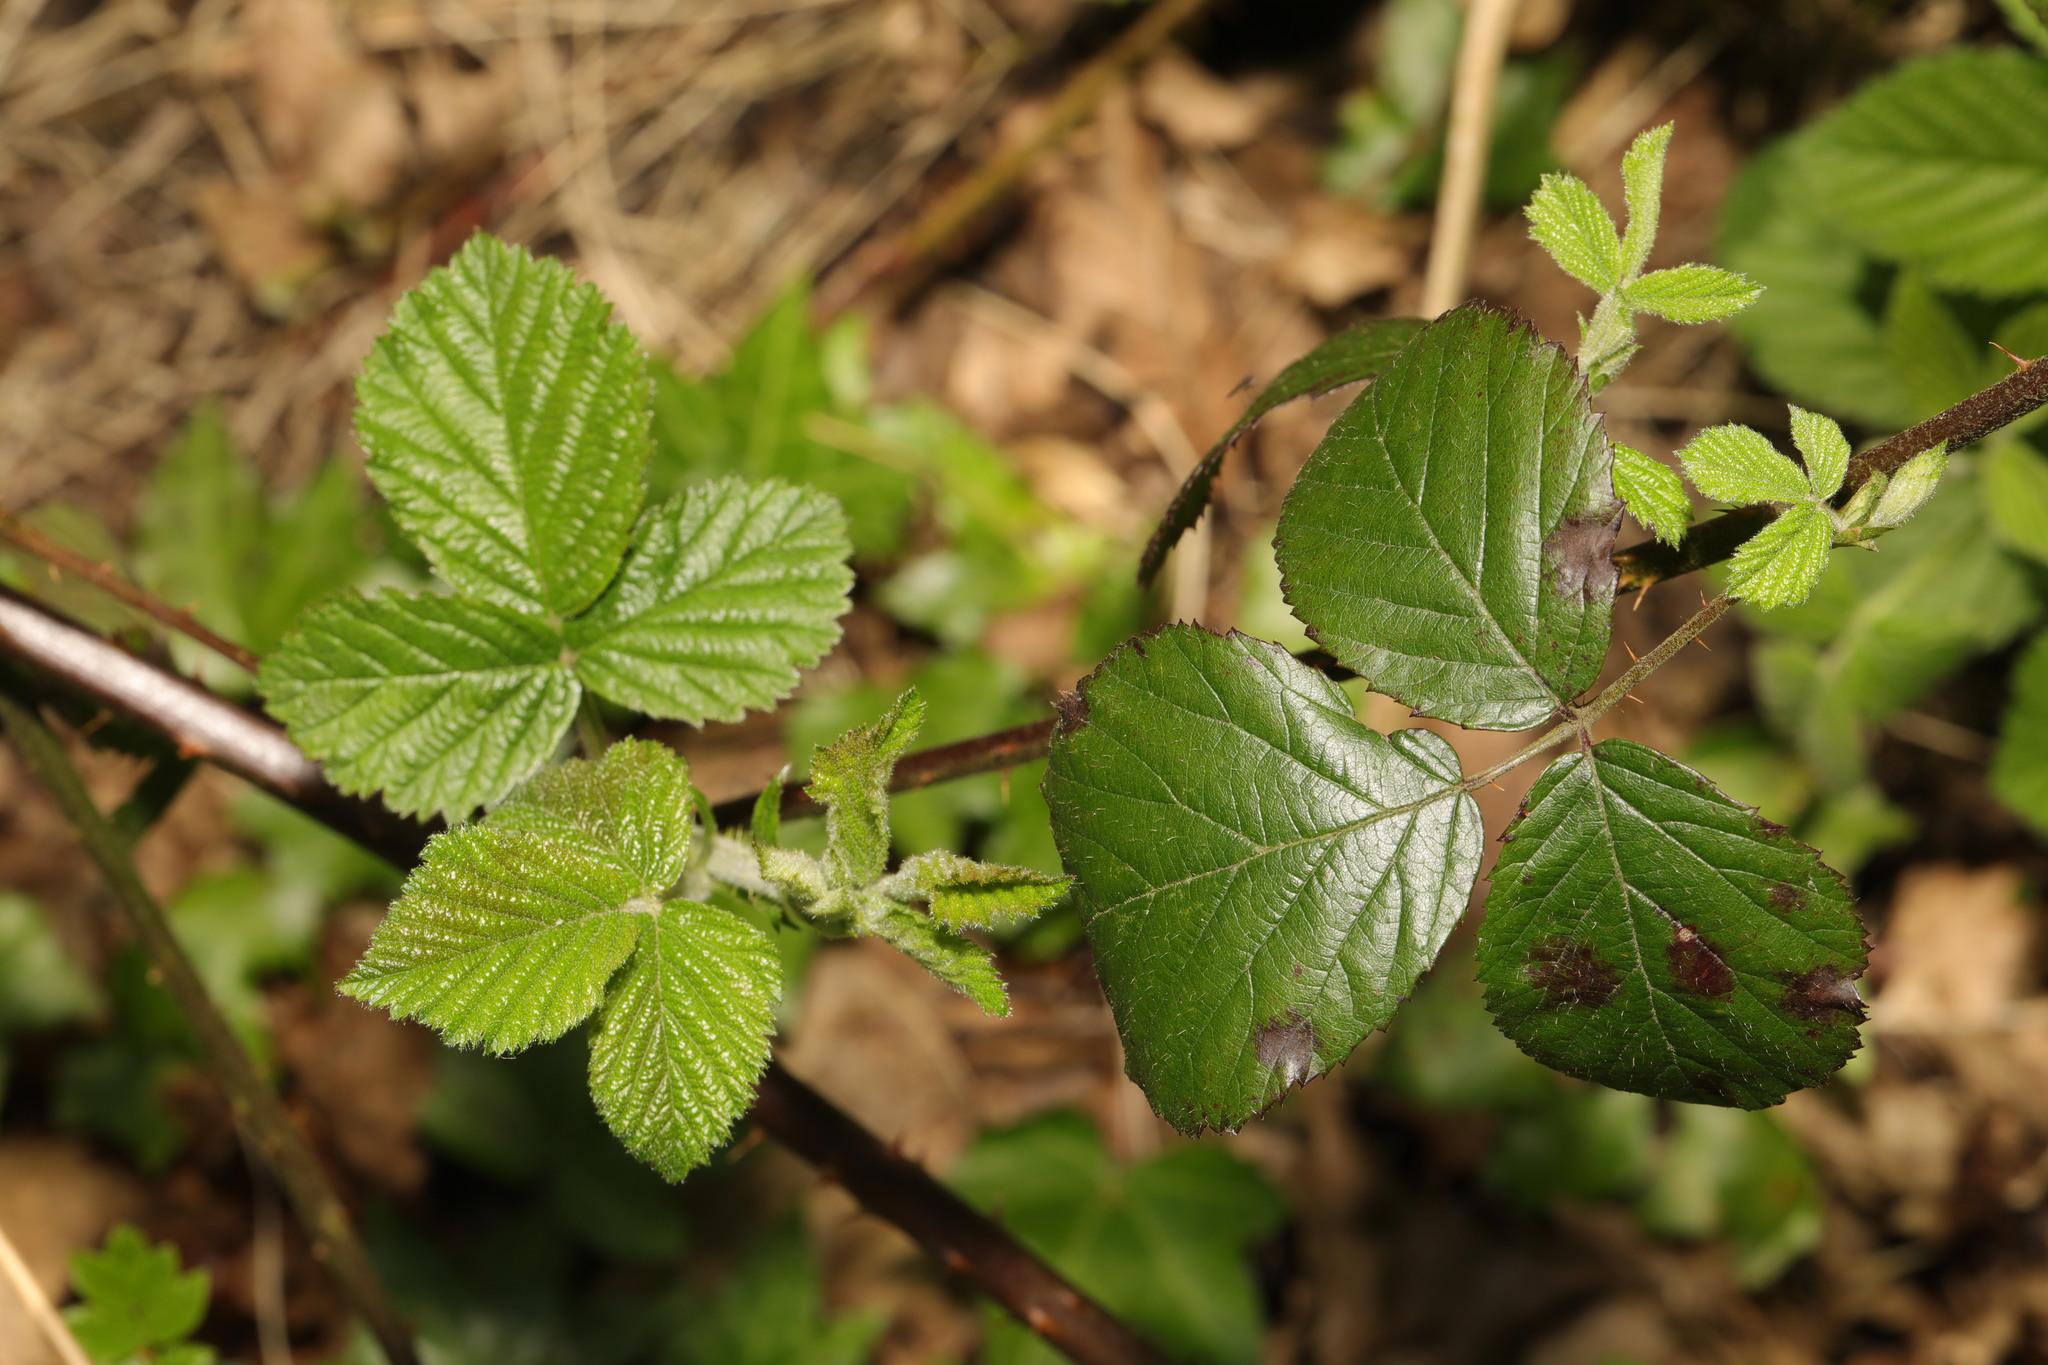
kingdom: Plantae
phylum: Tracheophyta
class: Magnoliopsida
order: Rosales
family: Rosaceae
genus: Rubus
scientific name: Rubus wirralensis
